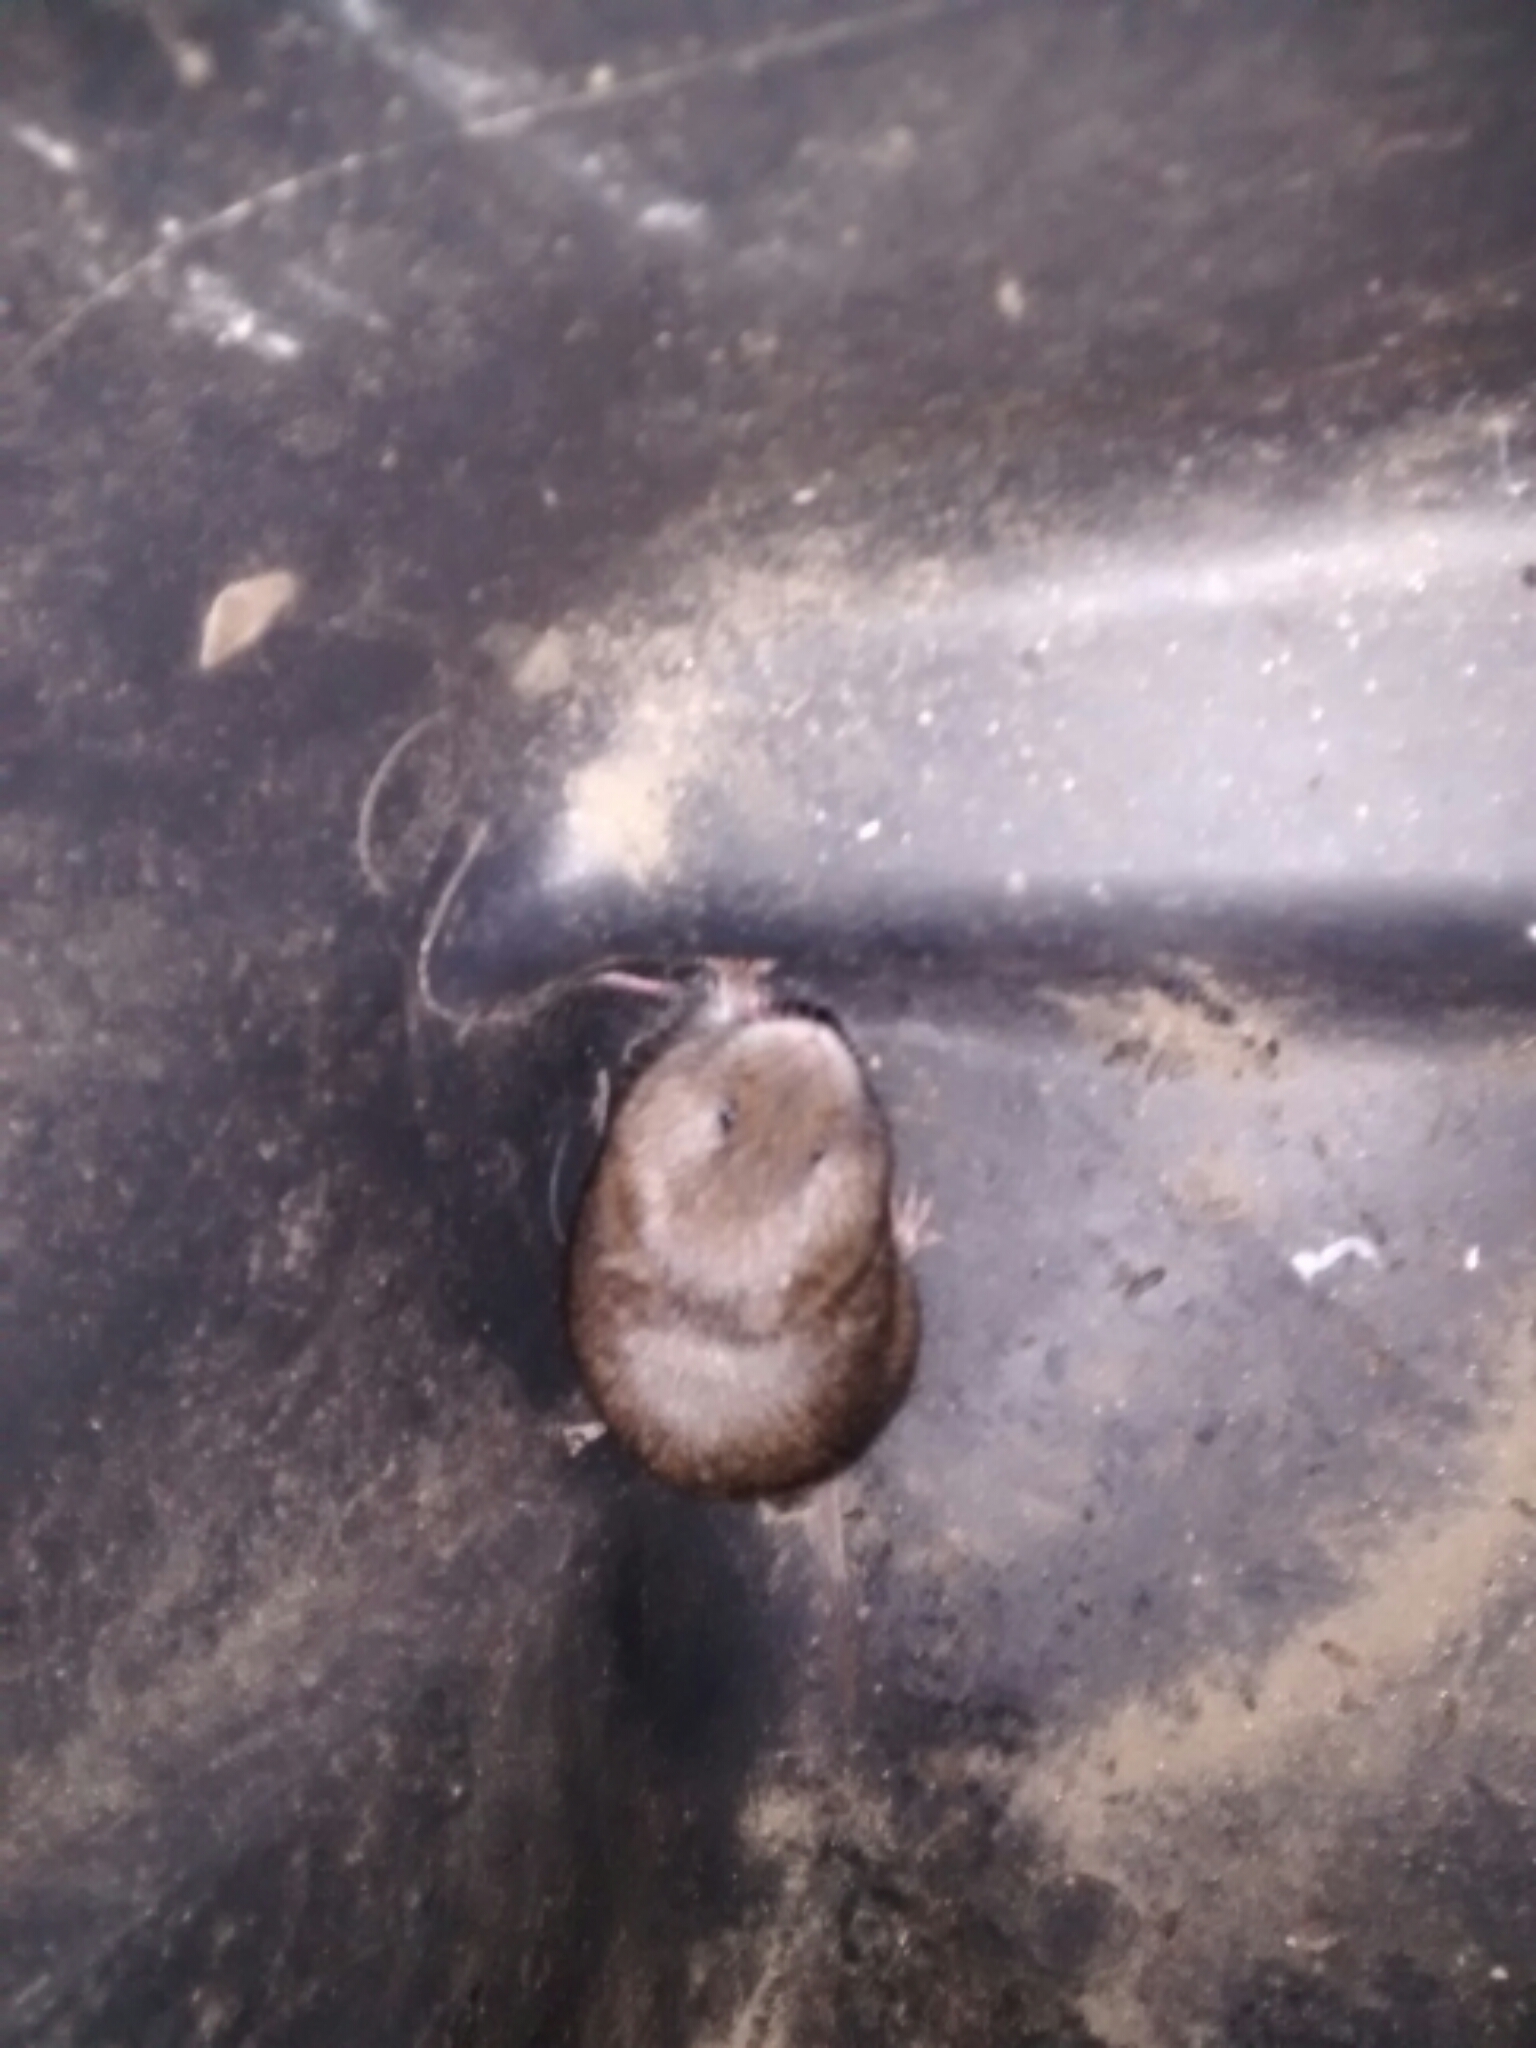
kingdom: Animalia
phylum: Chordata
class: Mammalia
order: Rodentia
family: Cricetidae
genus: Microtus
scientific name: Microtus pinetorum
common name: Woodland vole
